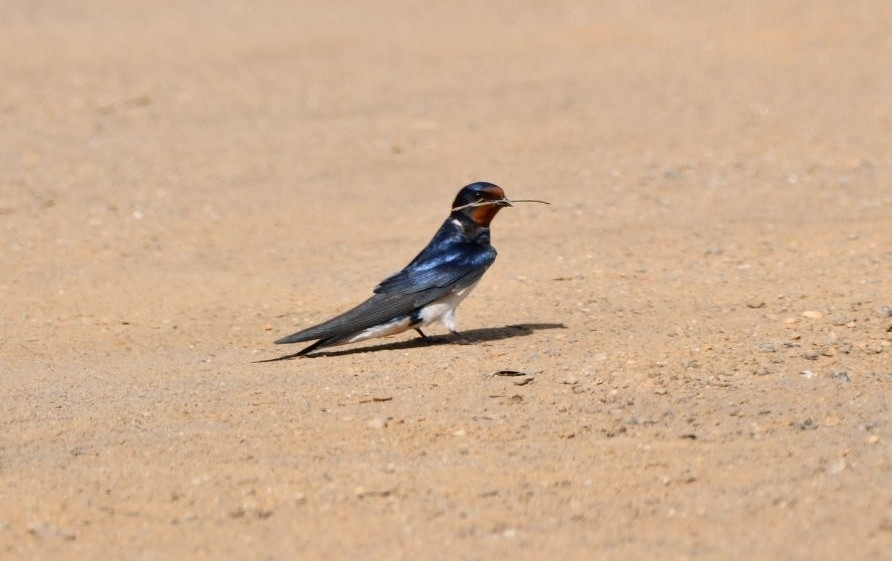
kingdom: Animalia
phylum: Chordata
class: Aves
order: Passeriformes
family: Hirundinidae
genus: Hirundo
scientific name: Hirundo rustica
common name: Barn swallow
